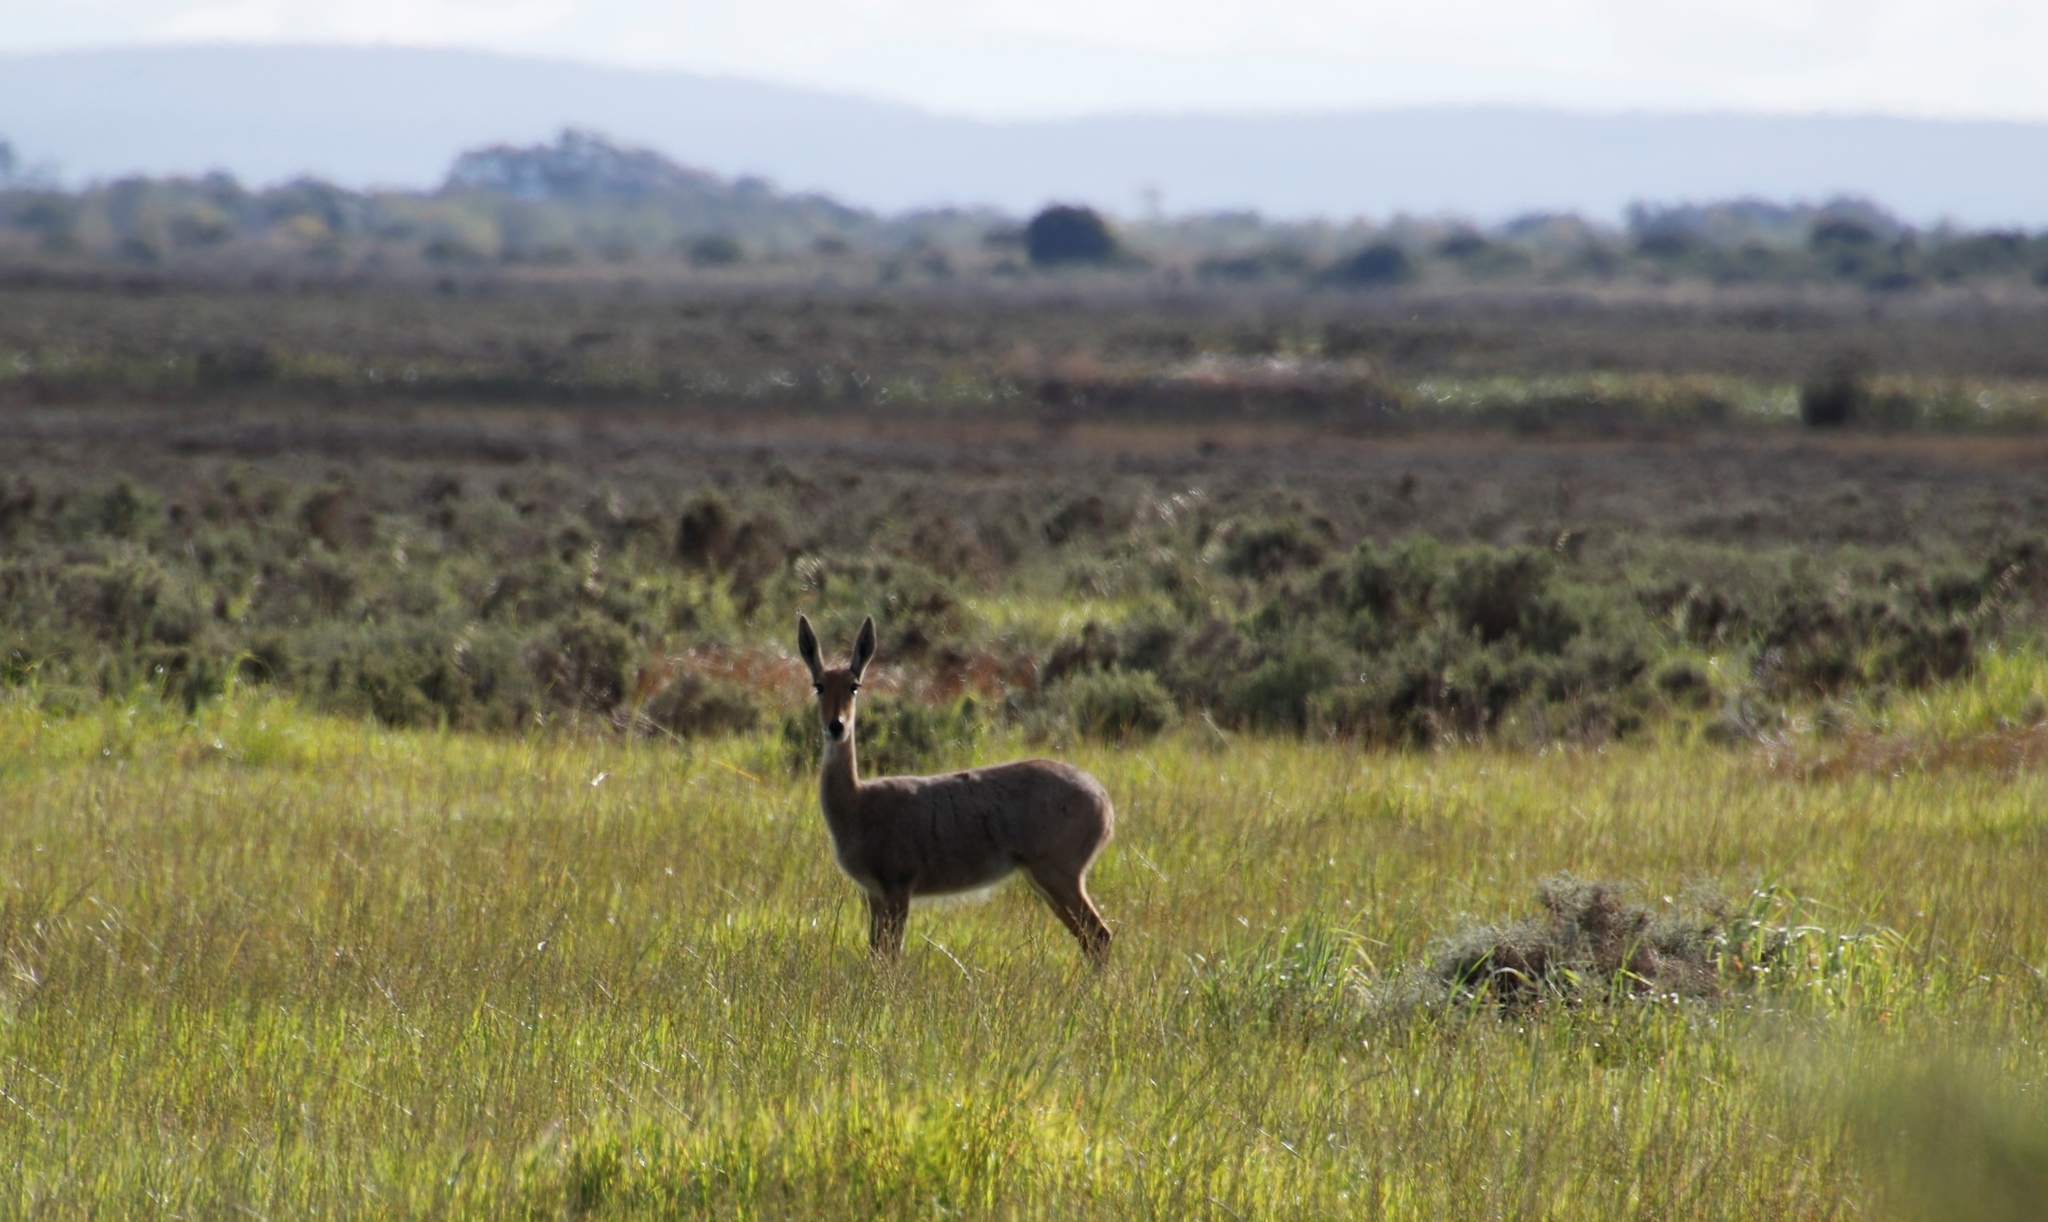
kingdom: Animalia
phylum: Chordata
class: Mammalia
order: Artiodactyla
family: Bovidae
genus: Pelea
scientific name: Pelea capreolus
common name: Common rhebok
